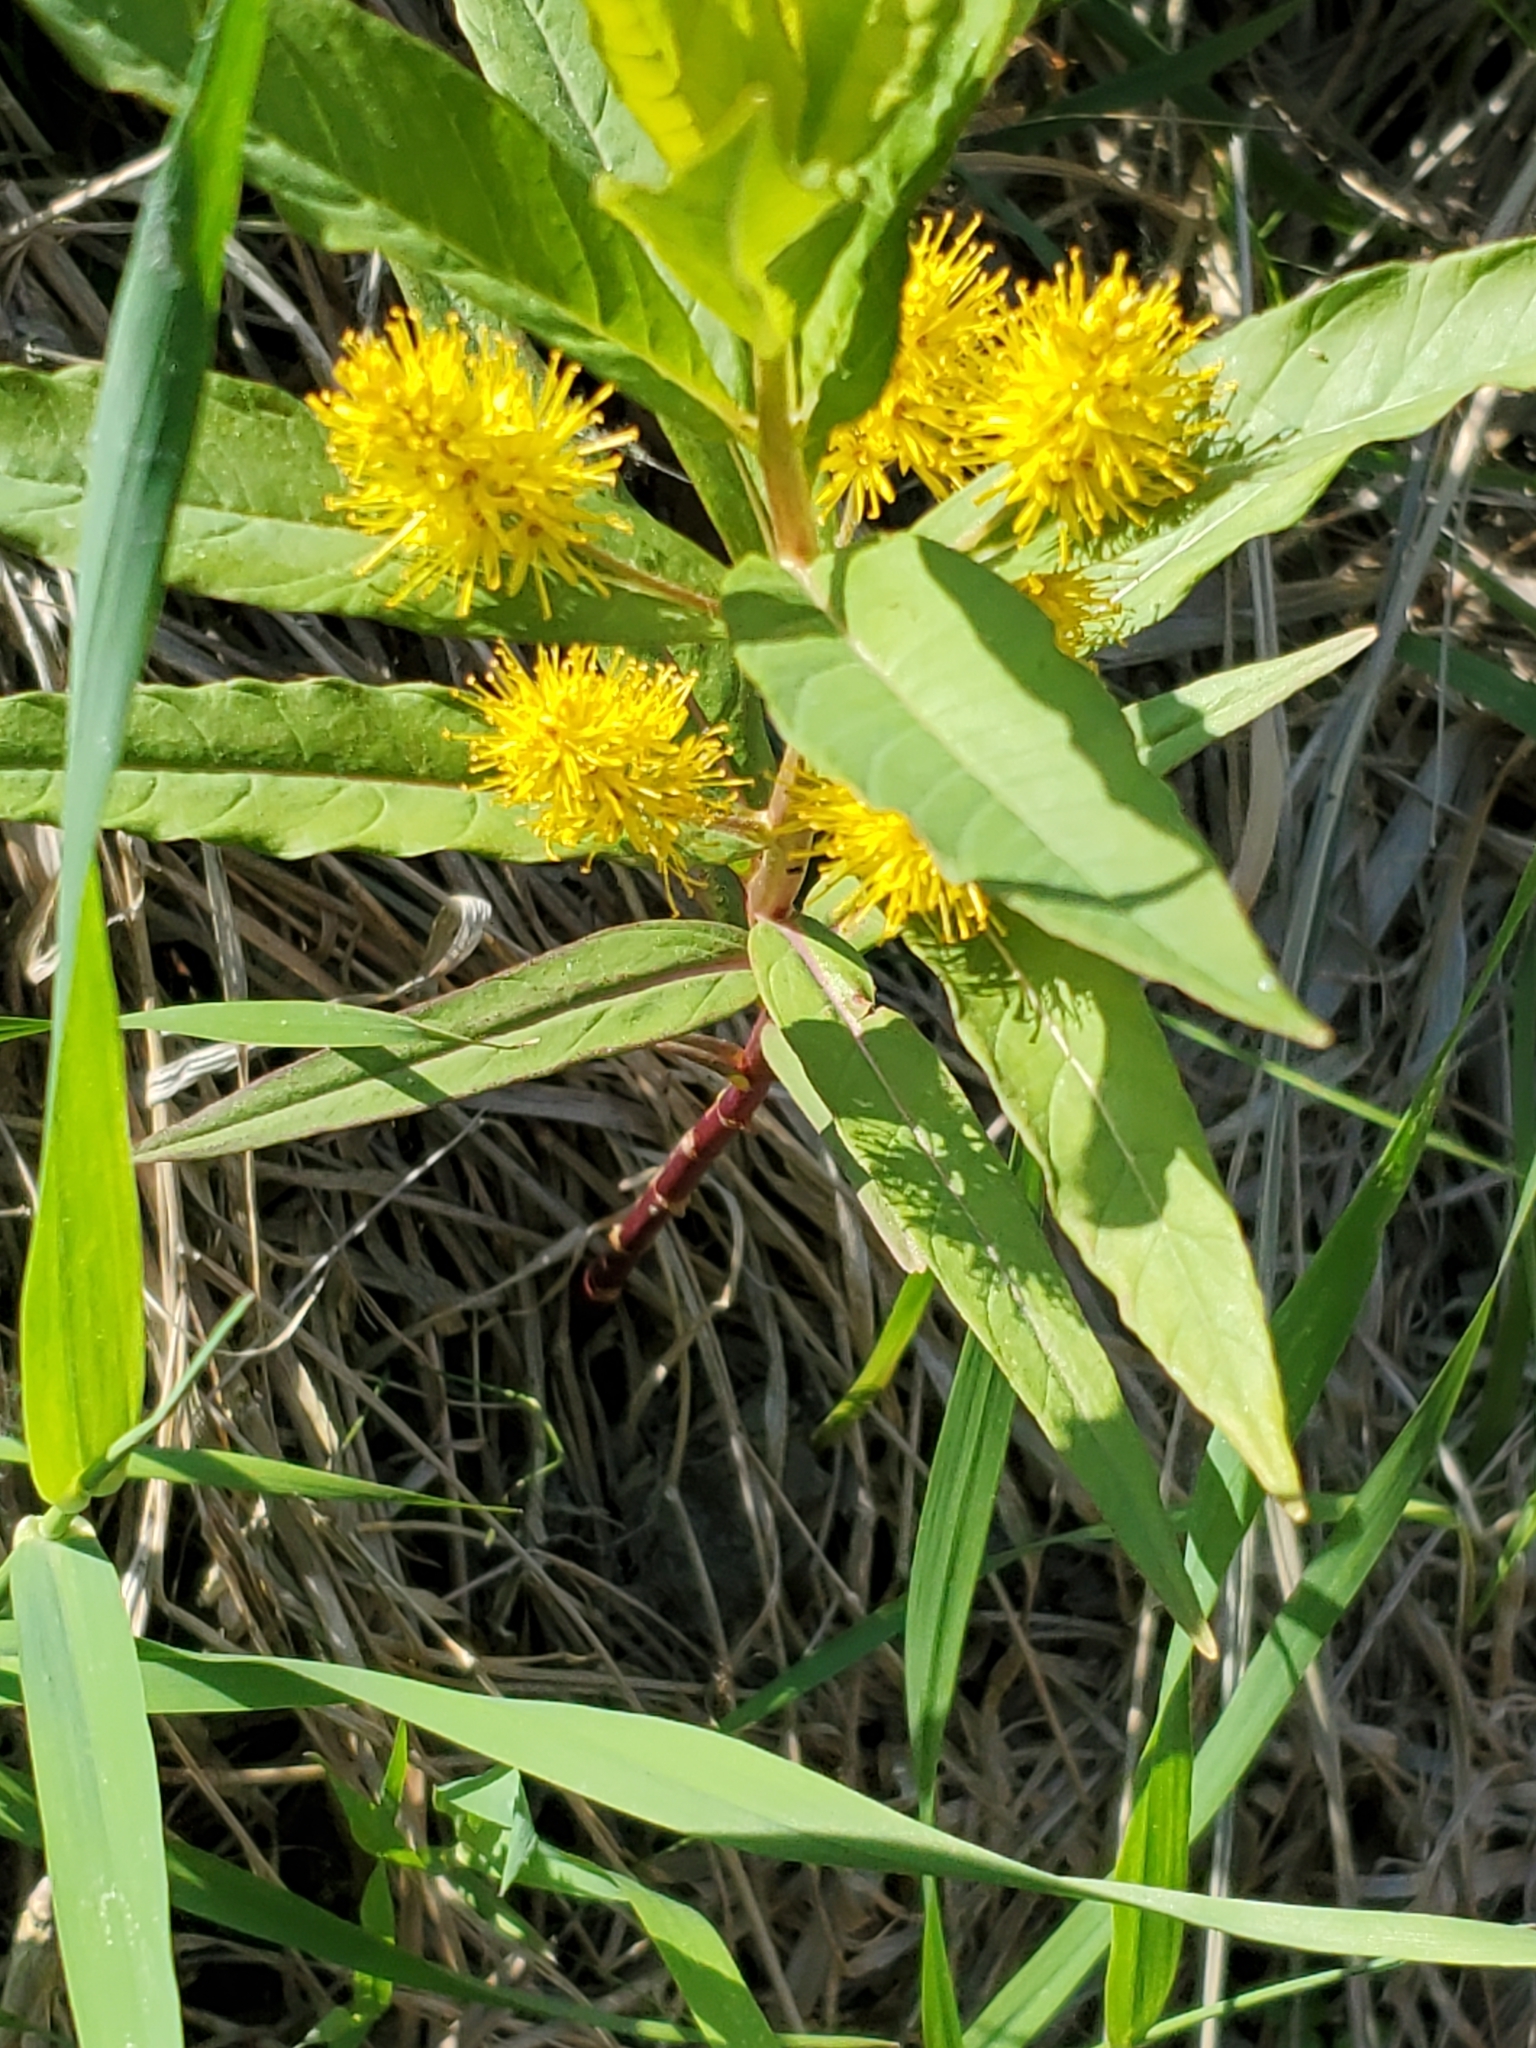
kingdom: Plantae
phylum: Tracheophyta
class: Magnoliopsida
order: Ericales
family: Primulaceae
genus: Lysimachia
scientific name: Lysimachia thyrsiflora
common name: Tufted loosestrife
